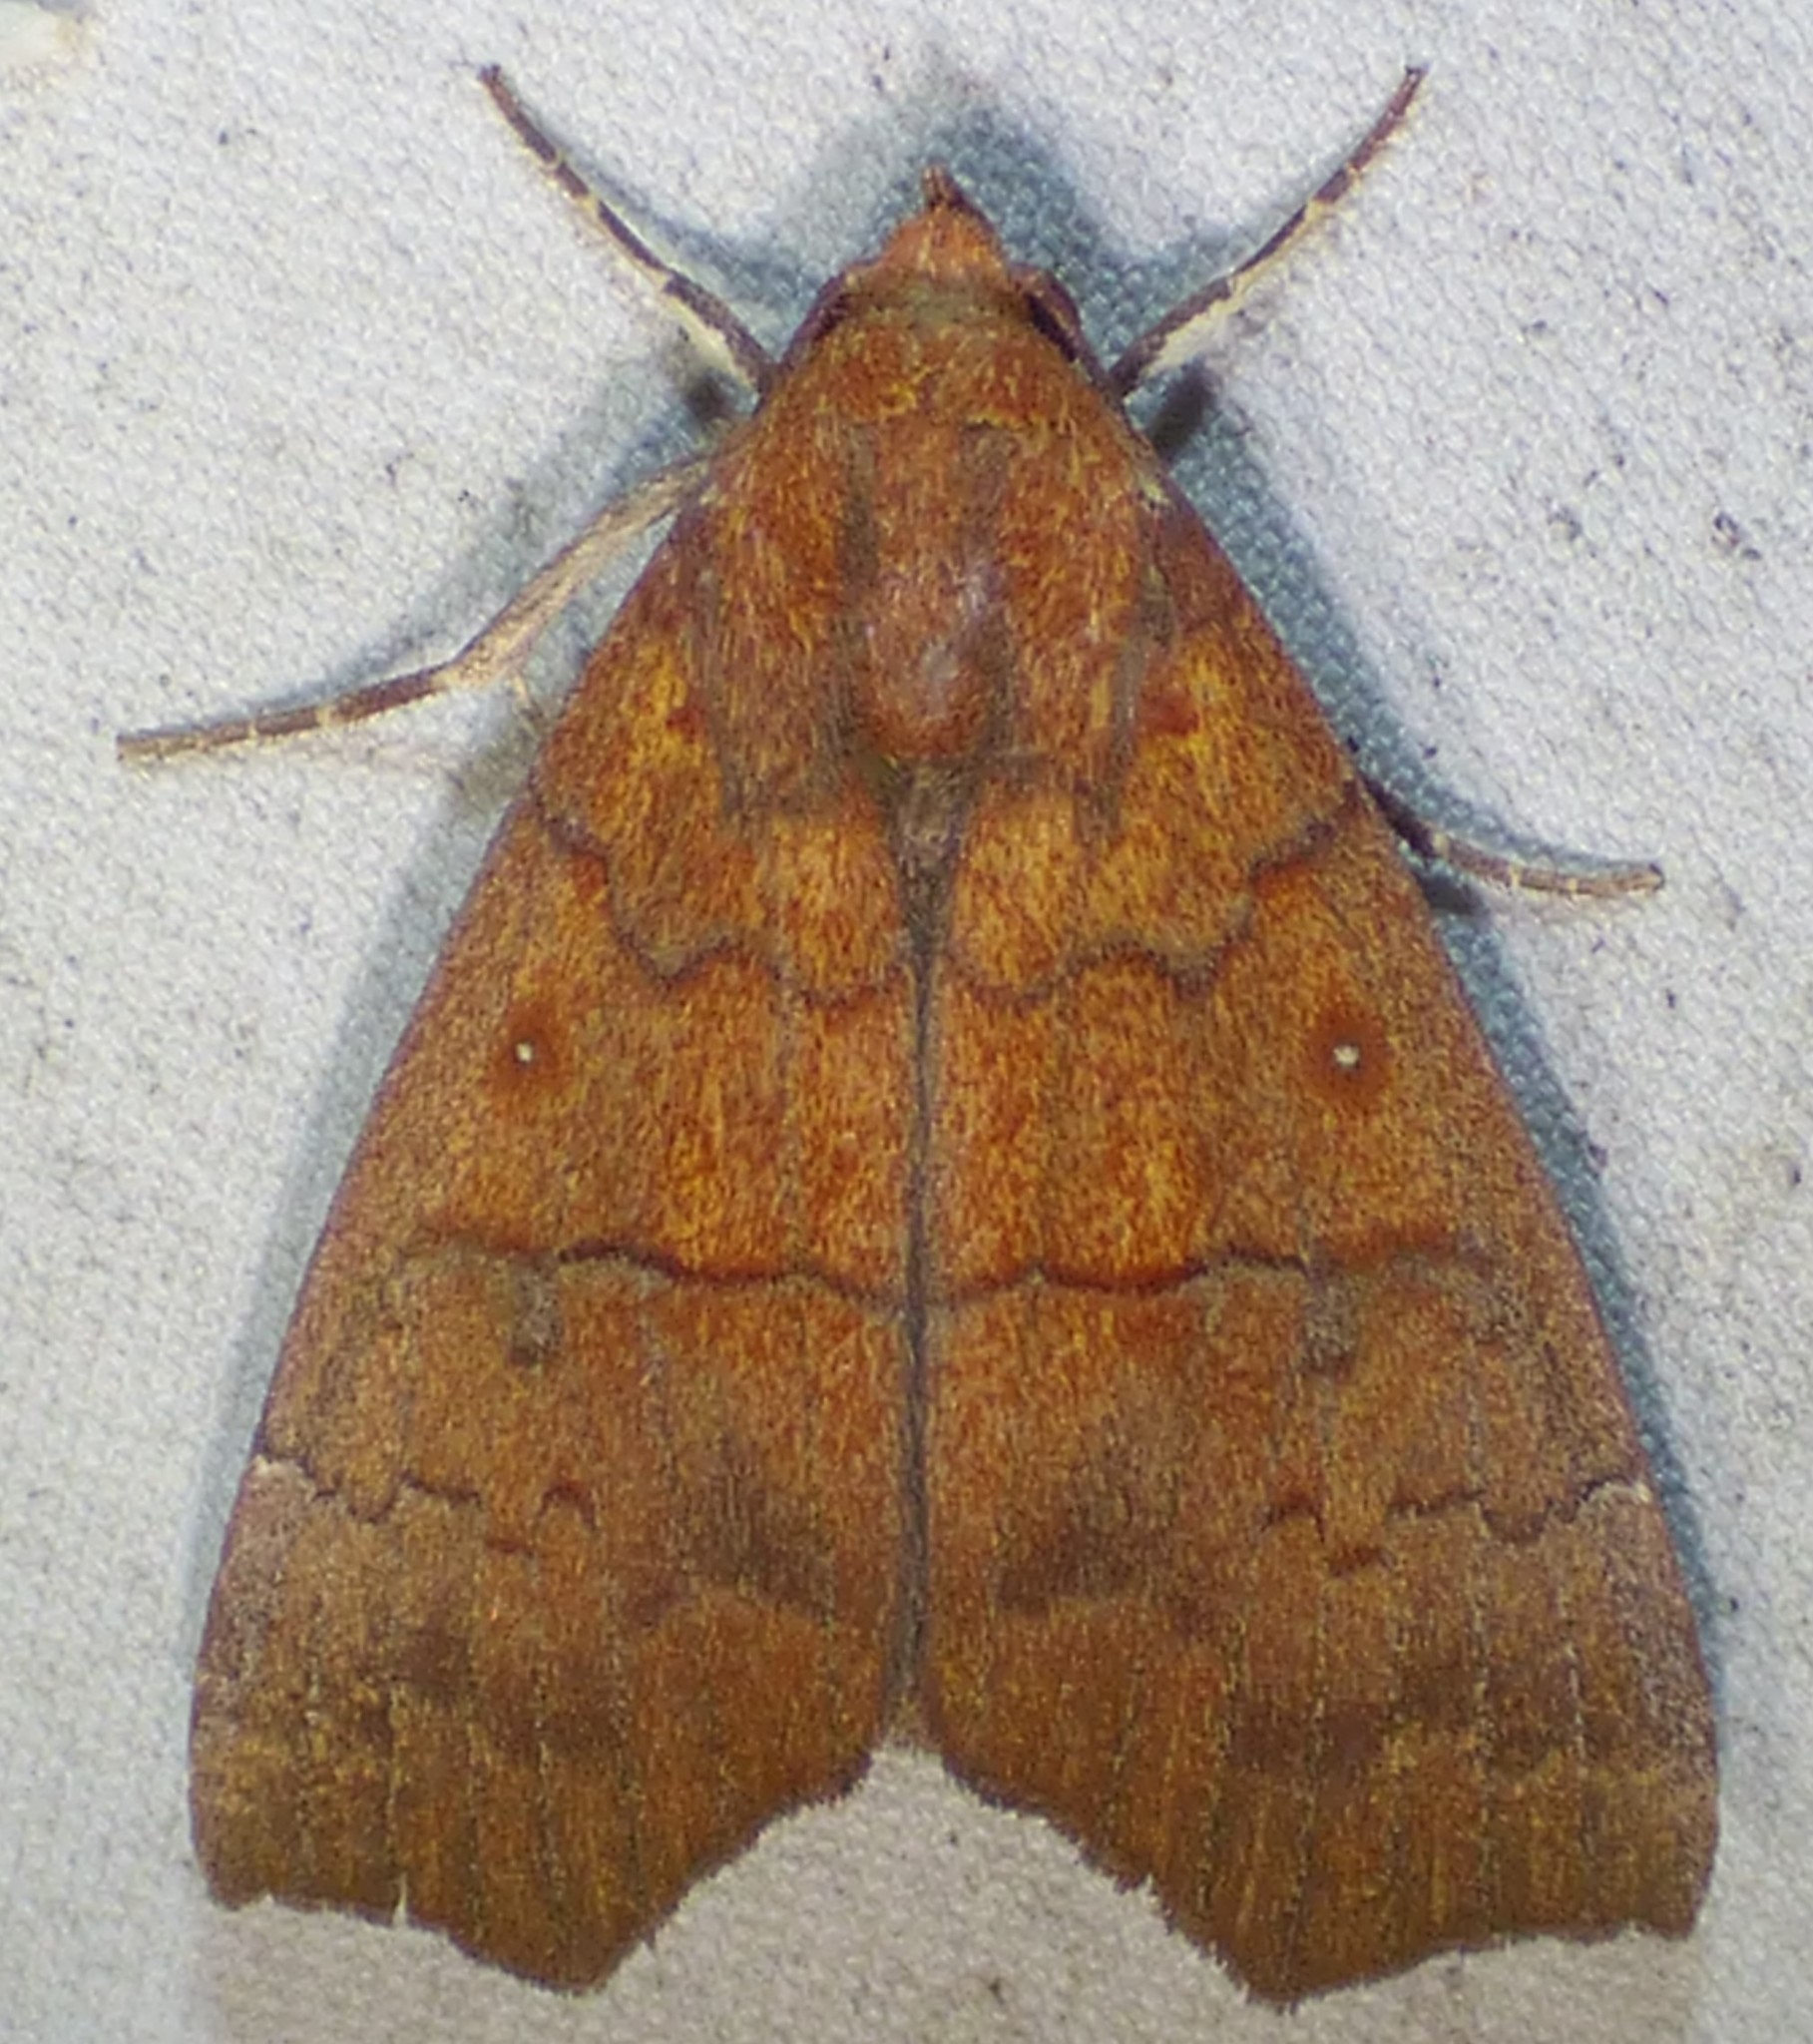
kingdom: Animalia
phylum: Arthropoda
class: Insecta
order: Lepidoptera
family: Erebidae
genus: Rusicada
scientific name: Rusicada privata
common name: Hibiscus leaf caterpillar moth
